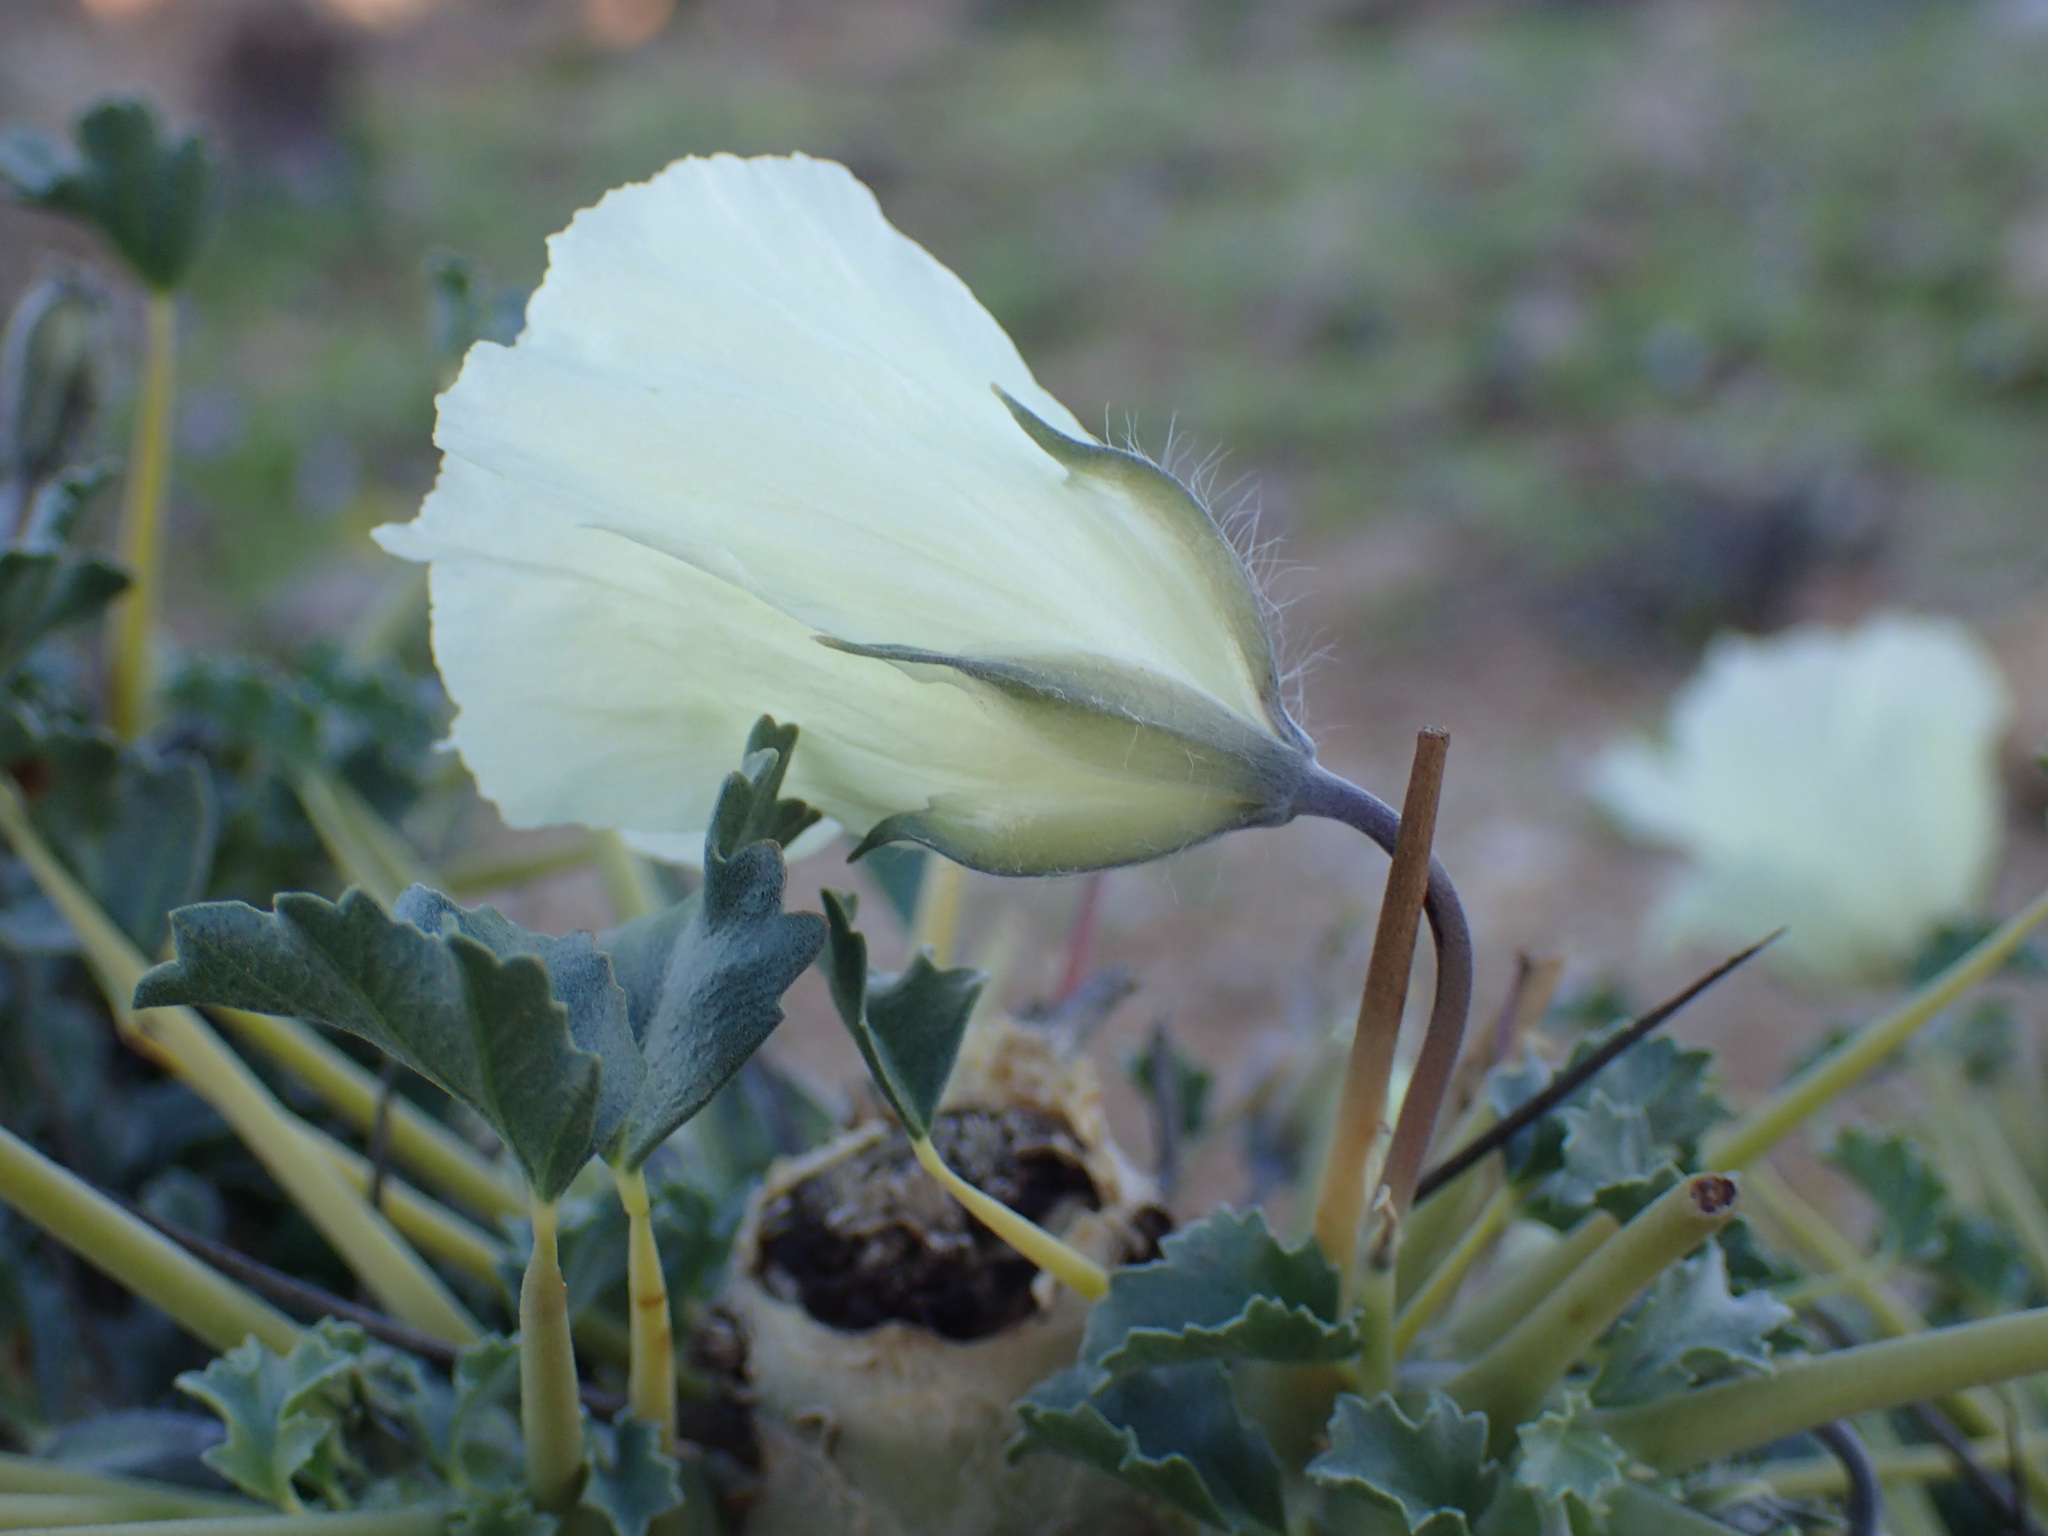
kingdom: Plantae
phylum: Tracheophyta
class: Magnoliopsida
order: Geraniales
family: Geraniaceae
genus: Monsonia
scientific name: Monsonia crassicaulis
